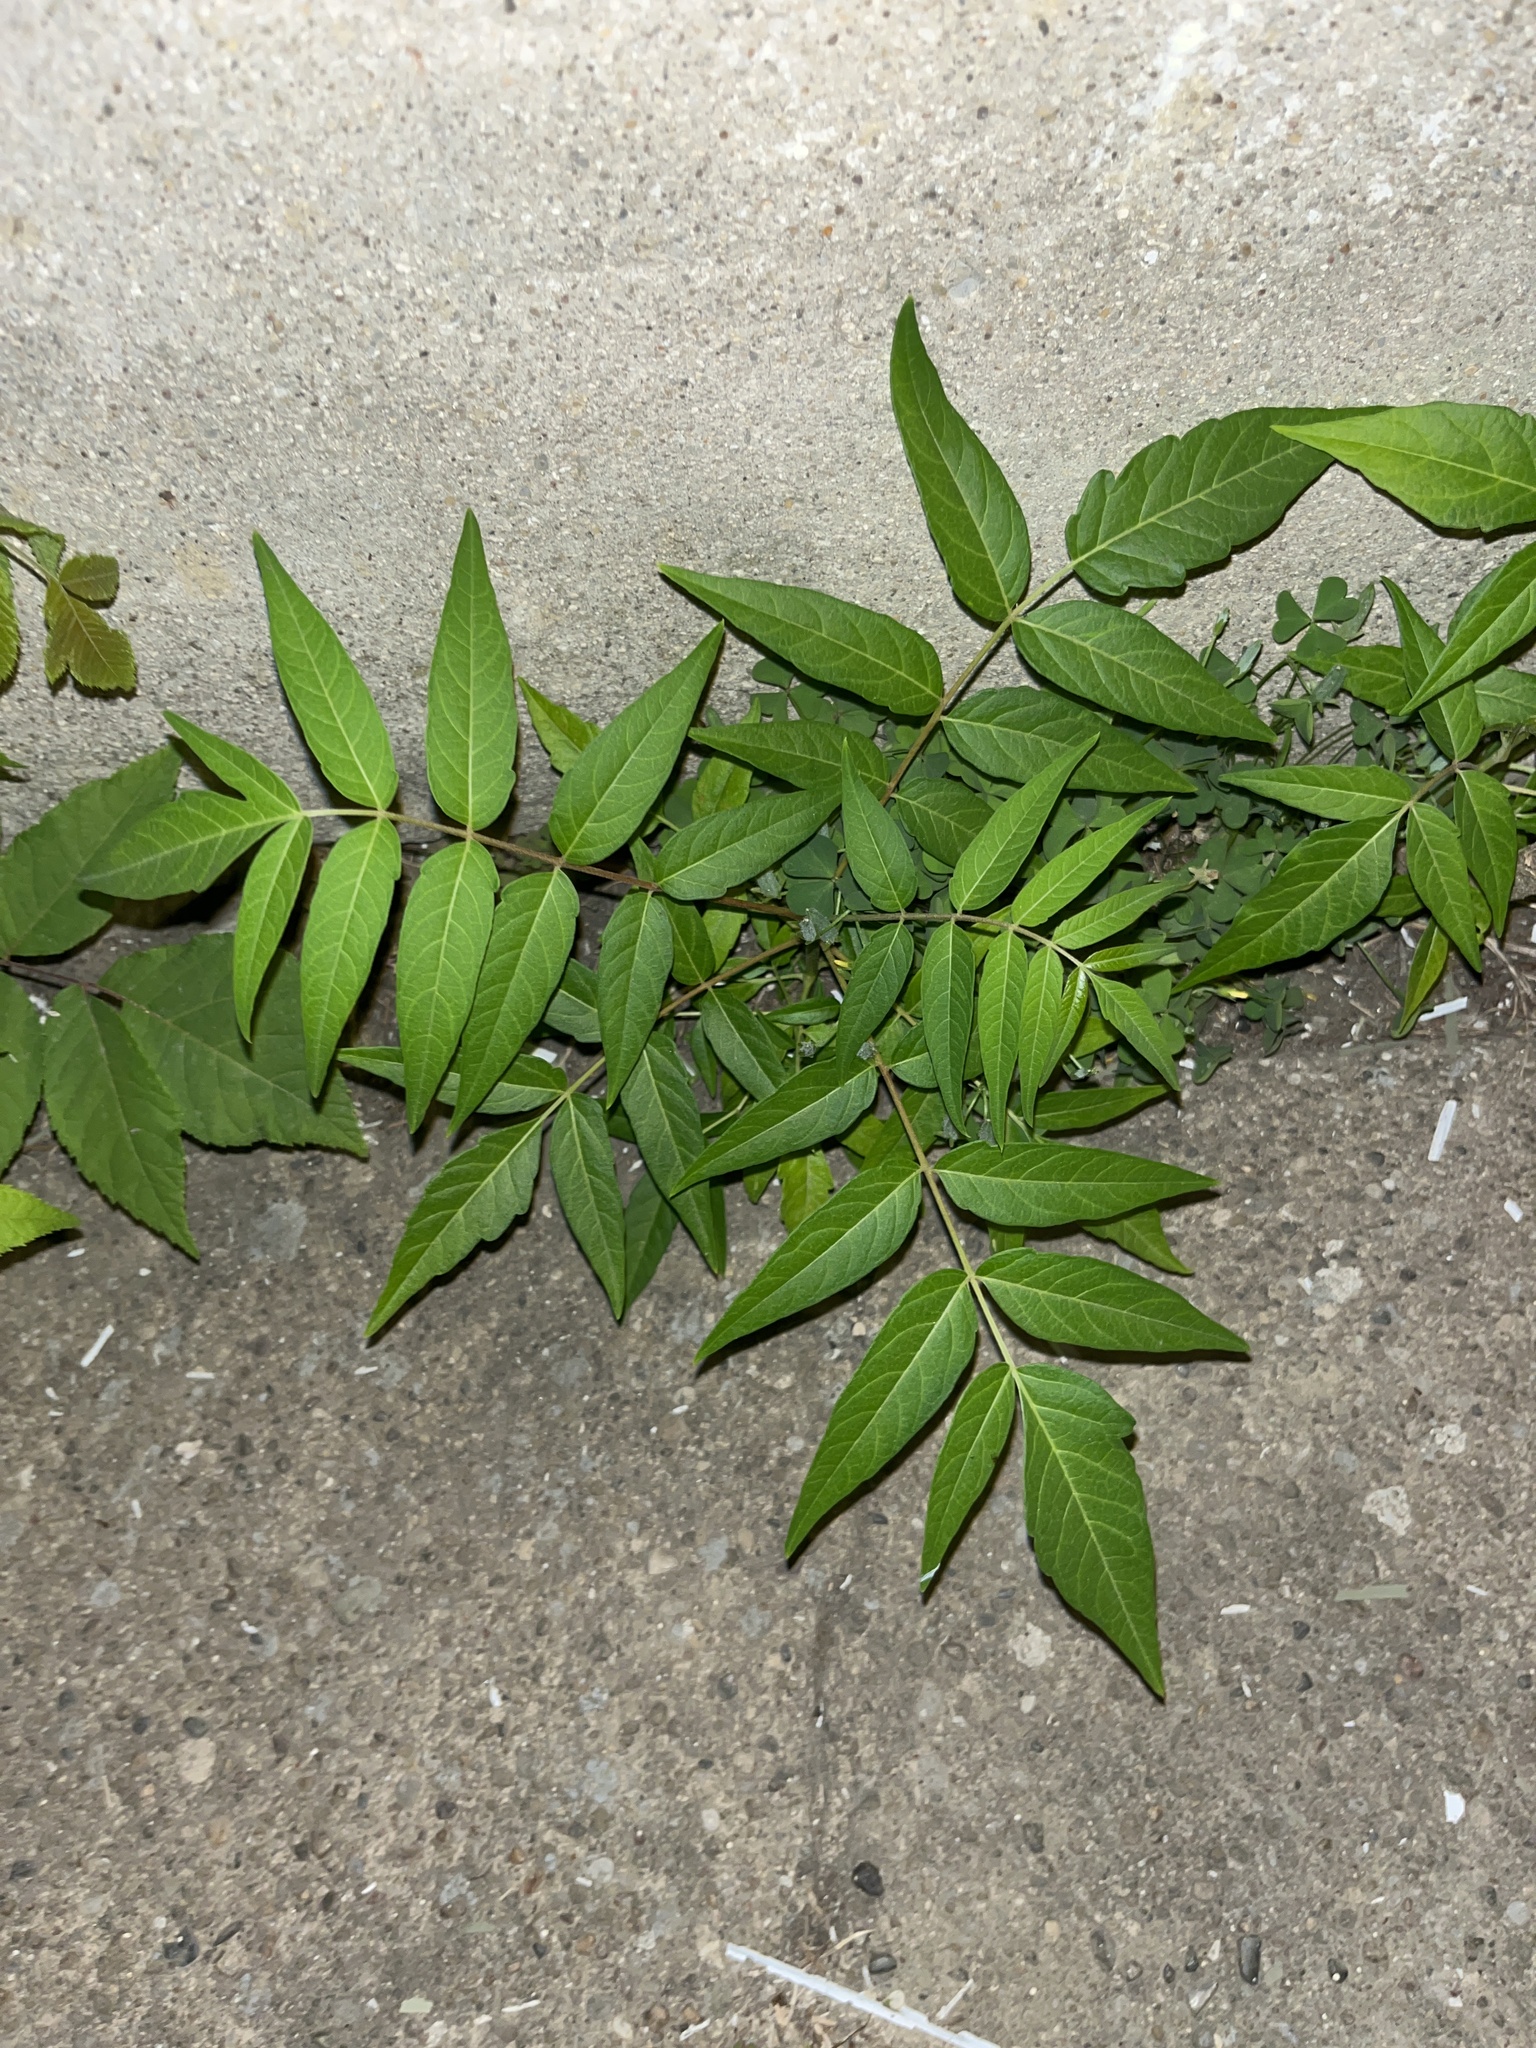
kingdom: Plantae
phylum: Tracheophyta
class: Magnoliopsida
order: Sapindales
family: Simaroubaceae
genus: Ailanthus
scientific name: Ailanthus altissima
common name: Tree-of-heaven
